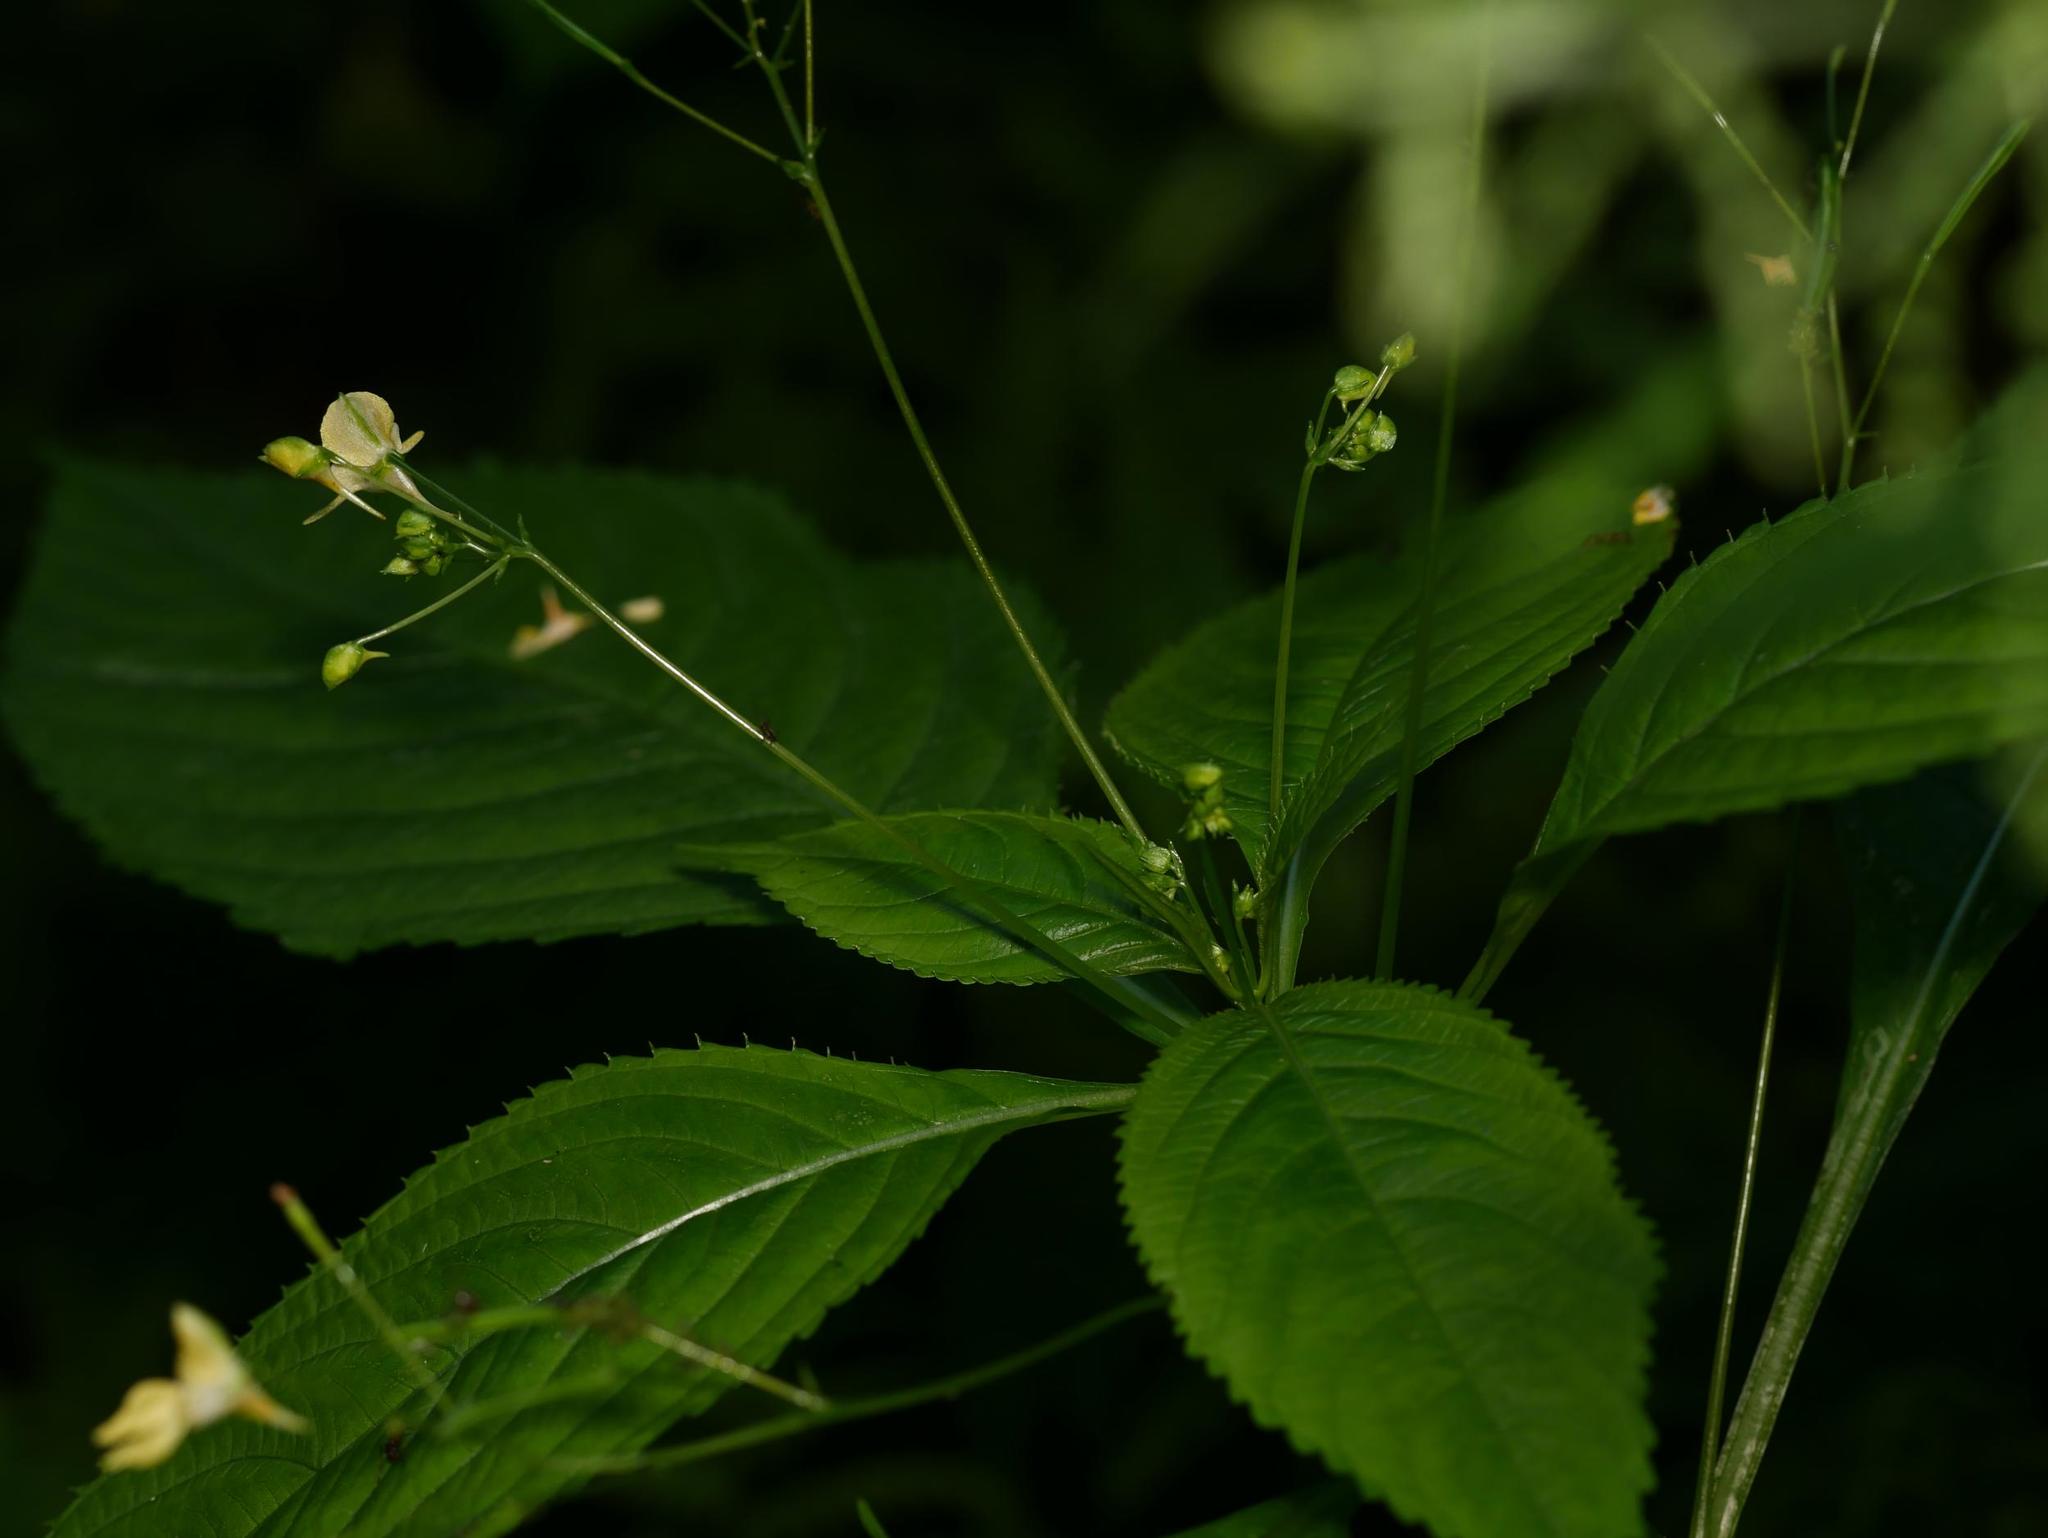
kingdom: Plantae
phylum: Tracheophyta
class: Magnoliopsida
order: Ericales
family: Balsaminaceae
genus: Impatiens
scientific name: Impatiens parviflora
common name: Small balsam
